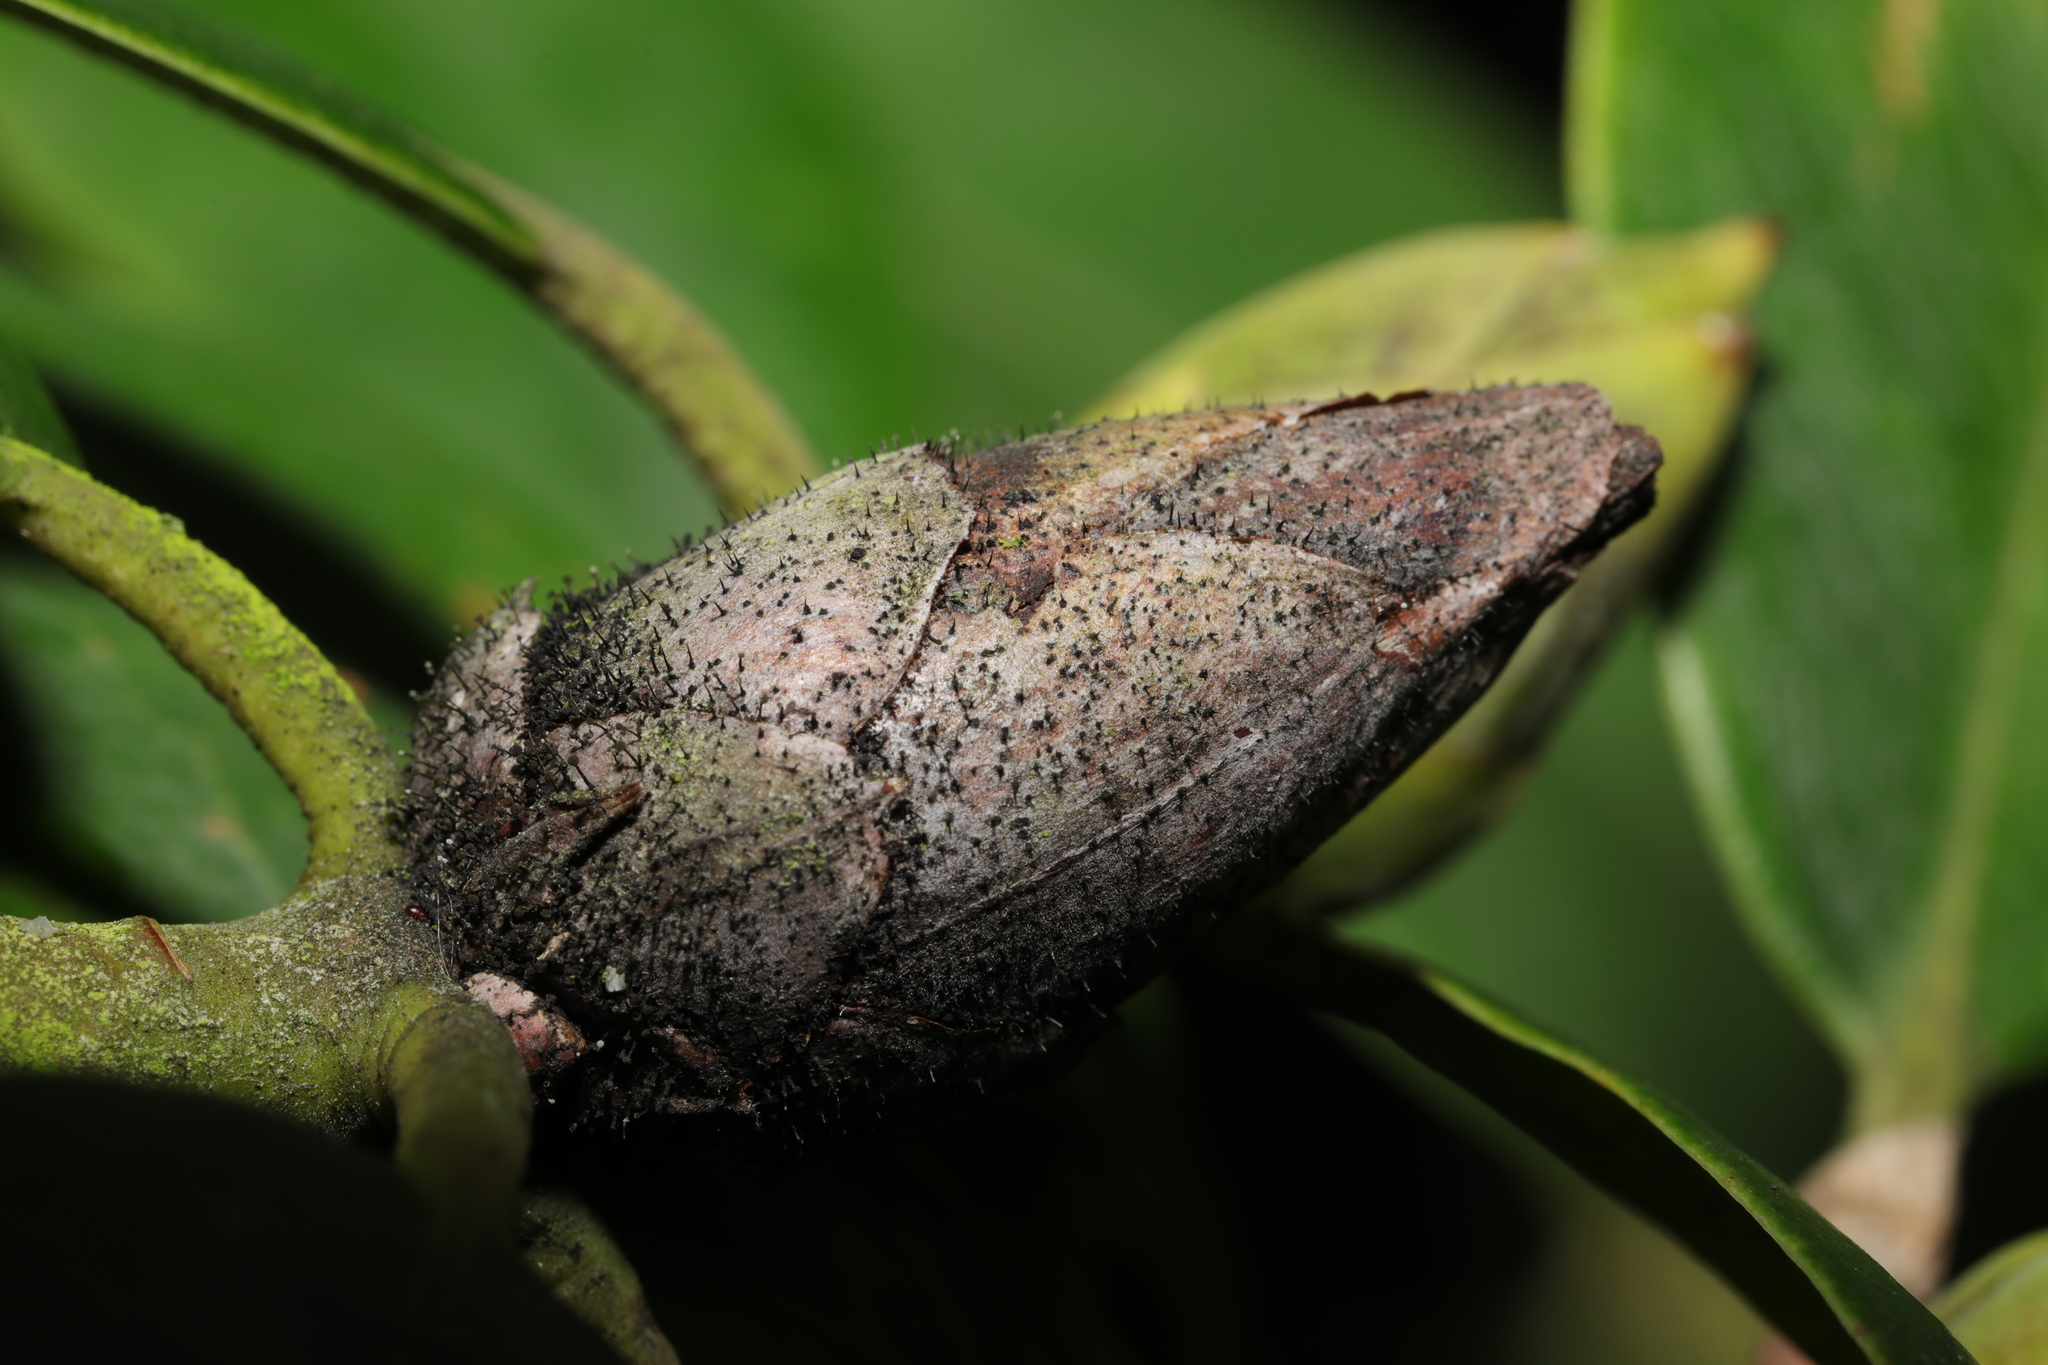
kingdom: Fungi
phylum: Ascomycota
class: Dothideomycetes
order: Pleosporales
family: Melanommataceae
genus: Seifertia
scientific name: Seifertia azaleae
